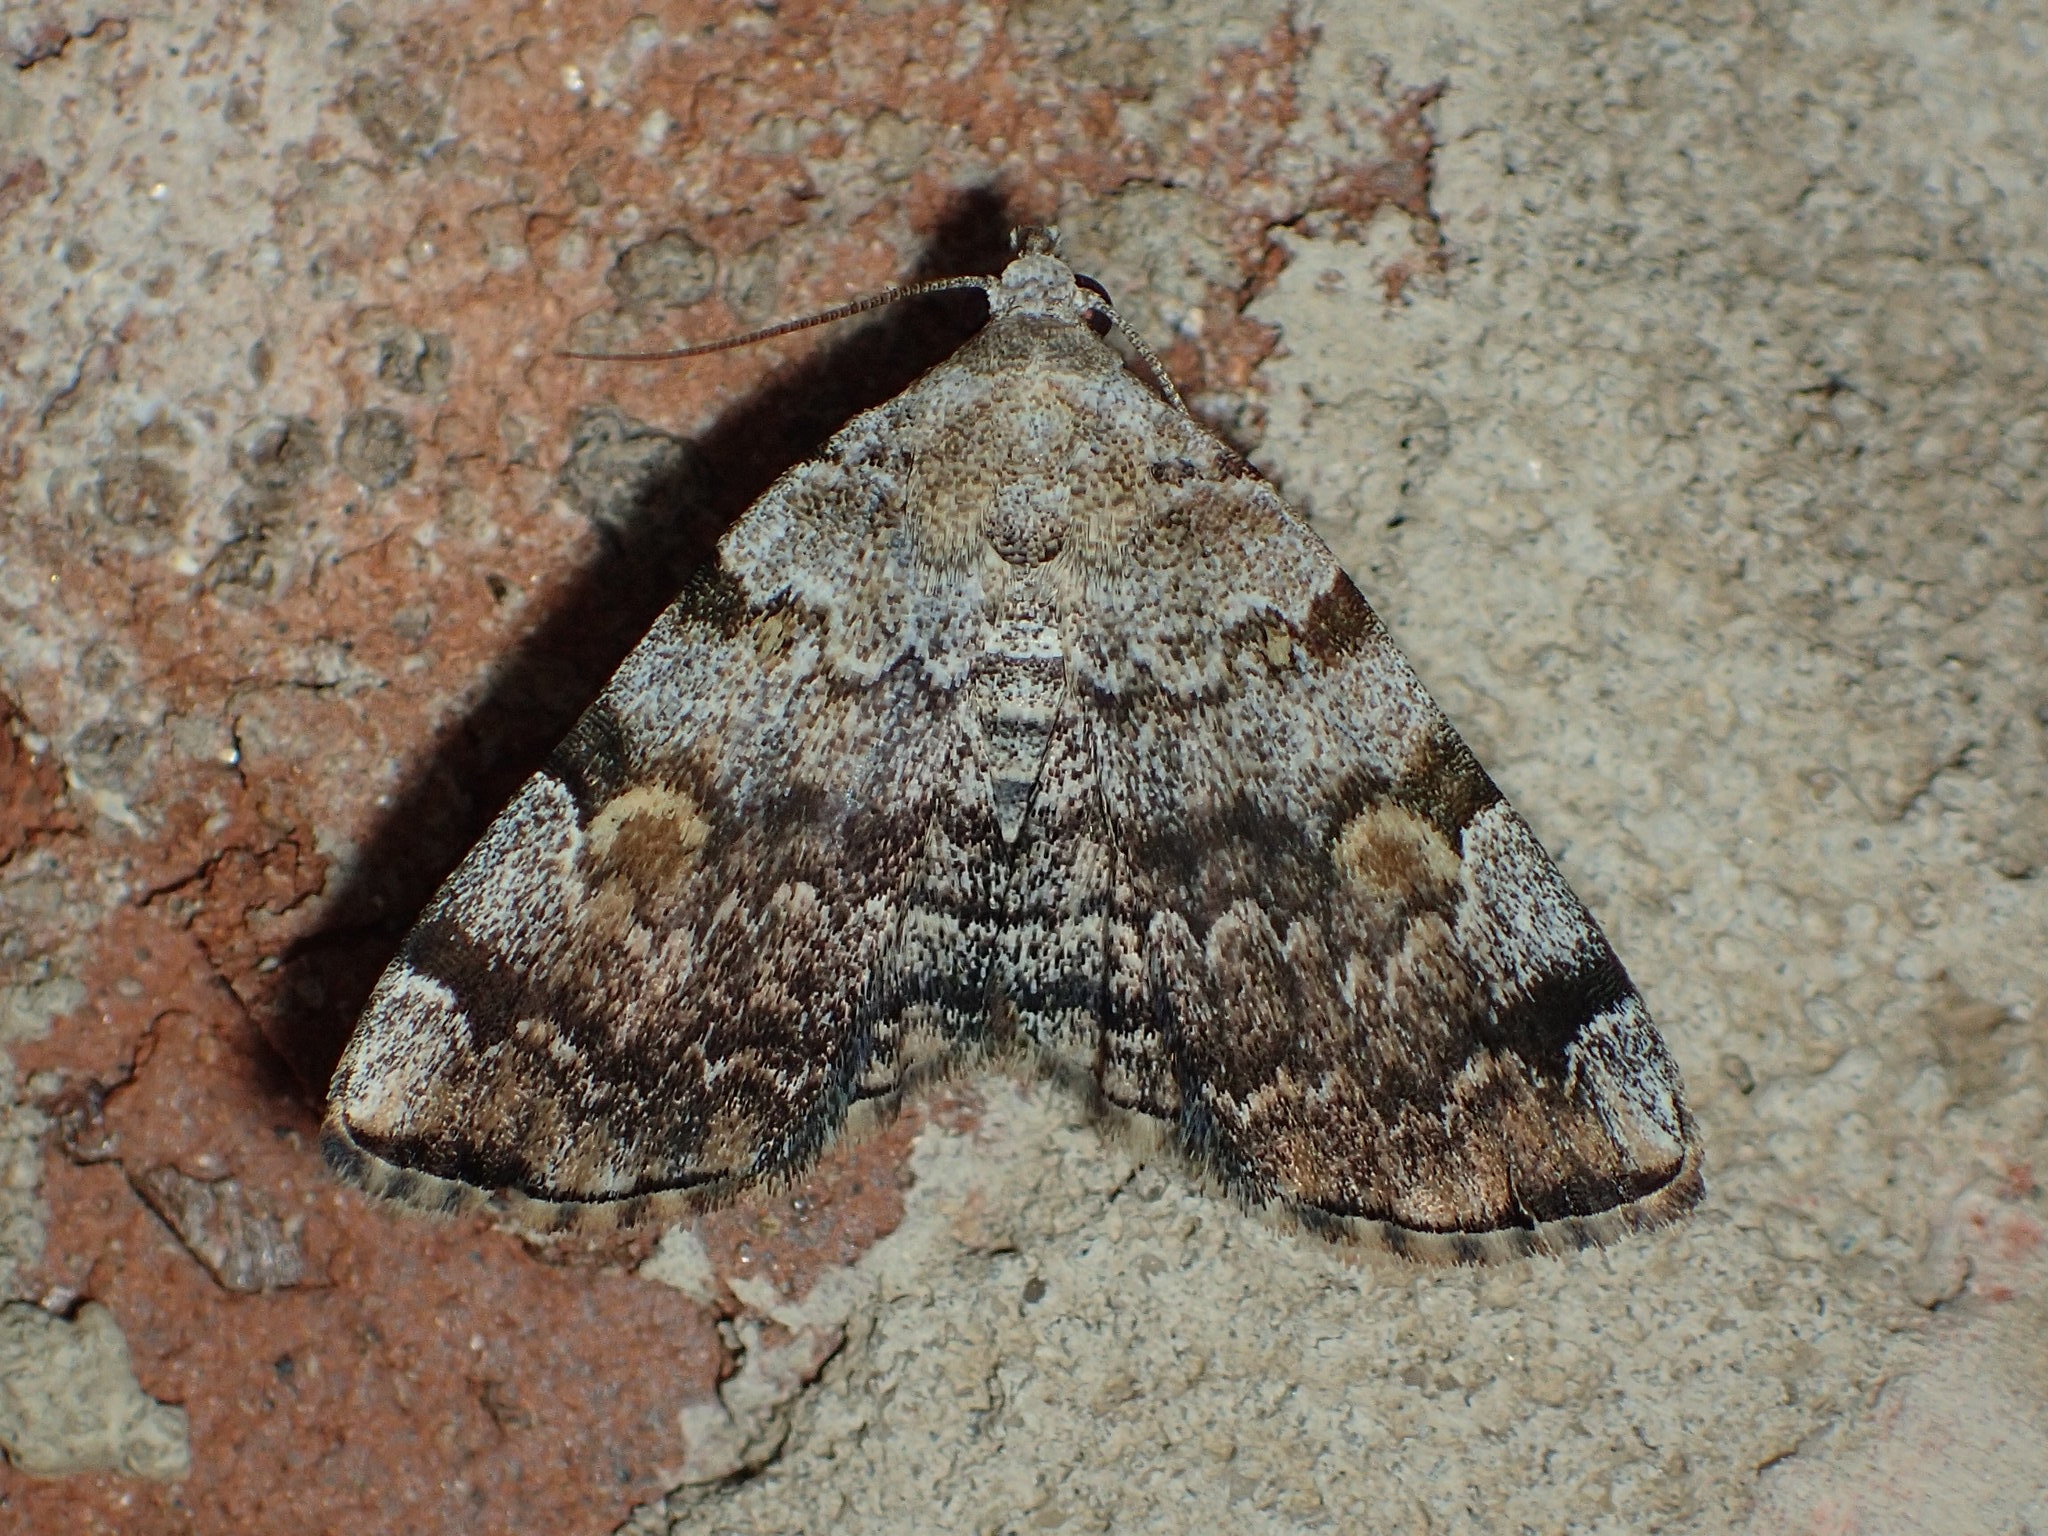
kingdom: Animalia
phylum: Arthropoda
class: Insecta
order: Lepidoptera
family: Erebidae
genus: Idia
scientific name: Idia americalis
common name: American idia moth
